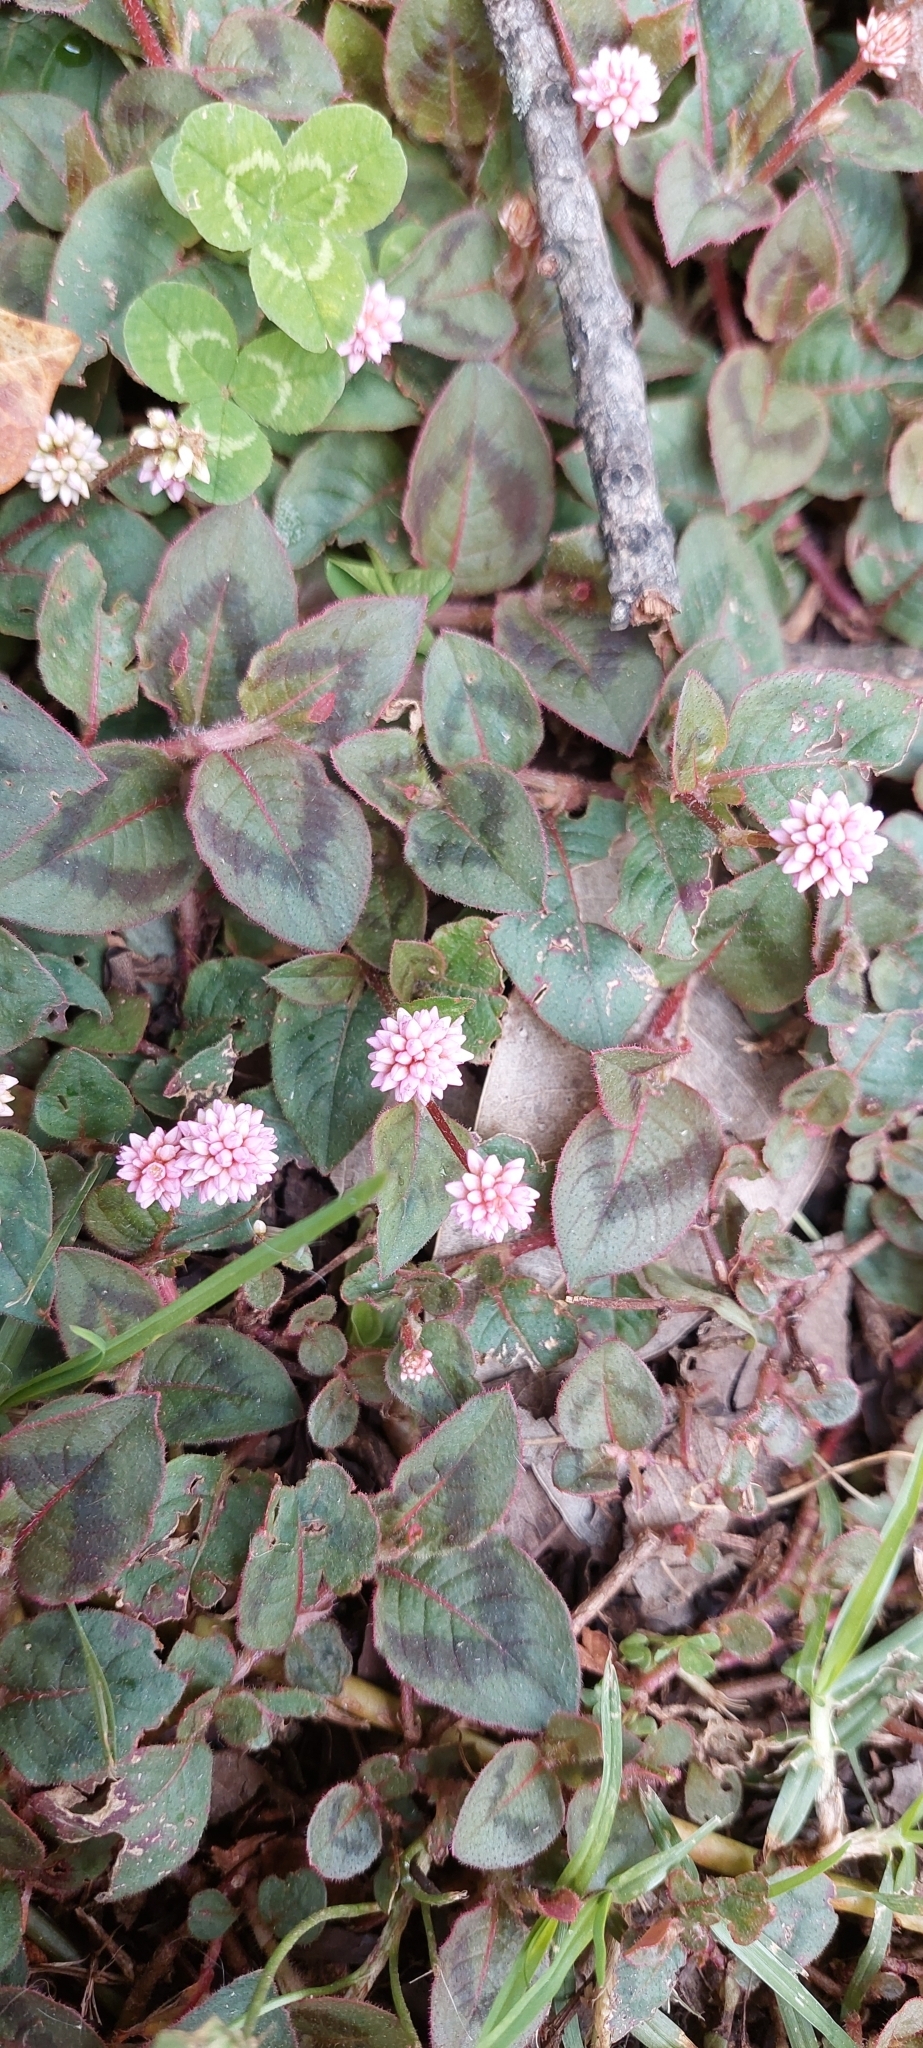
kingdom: Plantae
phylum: Tracheophyta
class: Magnoliopsida
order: Caryophyllales
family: Polygonaceae
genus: Persicaria
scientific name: Persicaria capitata
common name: Pinkhead smartweed
